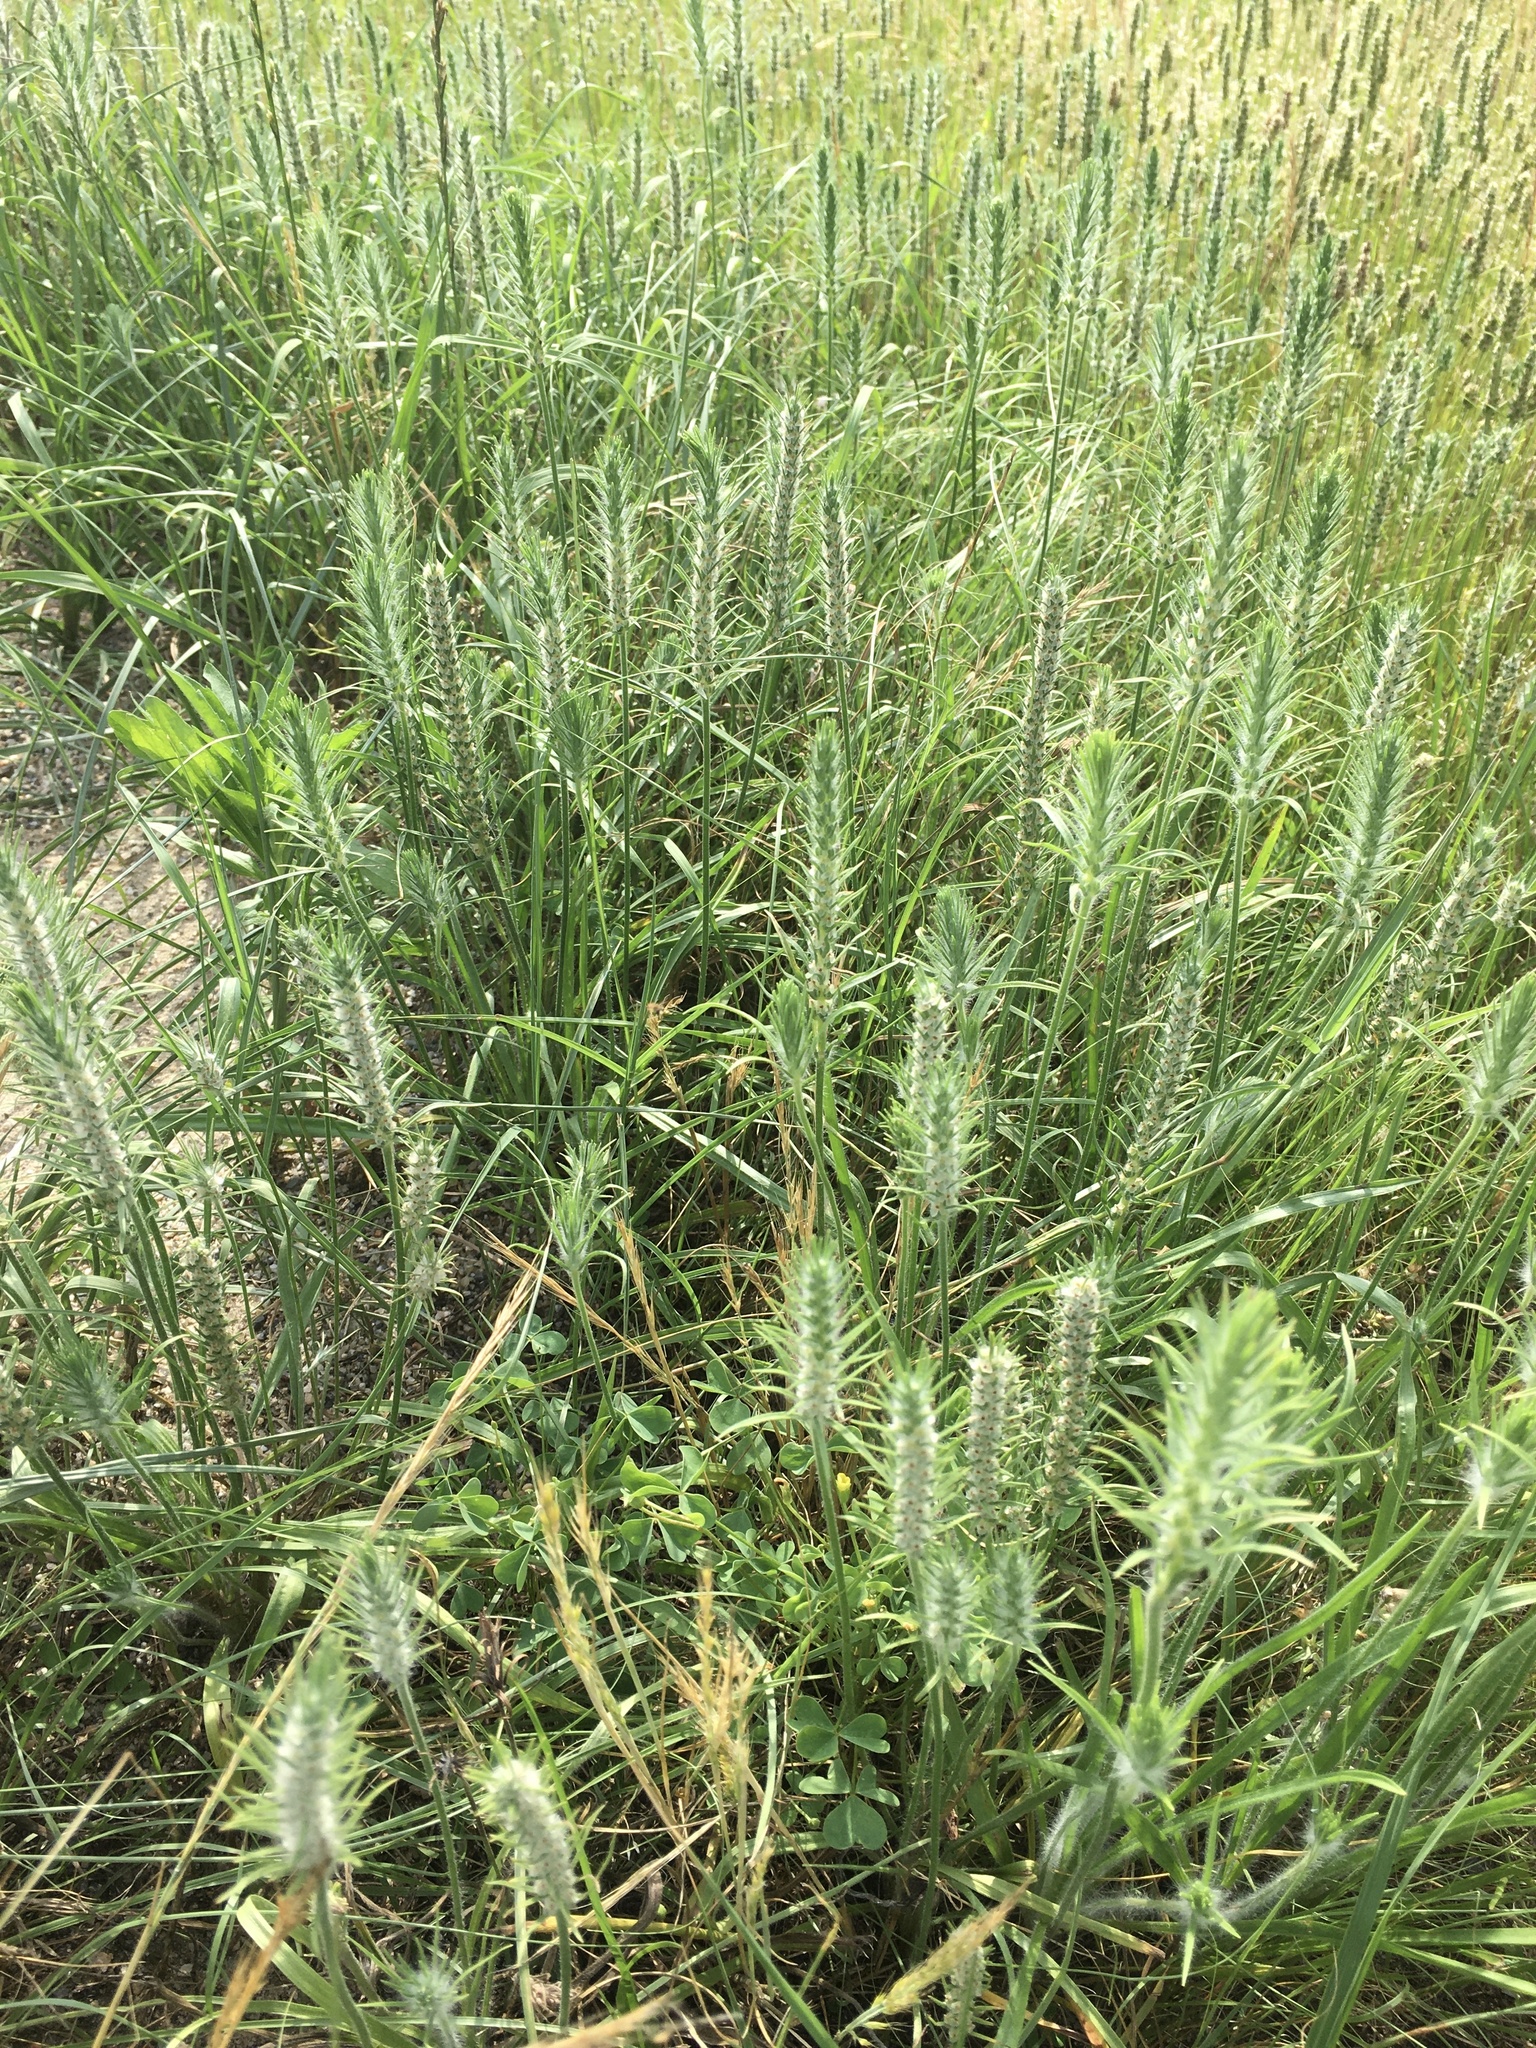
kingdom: Plantae
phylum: Tracheophyta
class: Magnoliopsida
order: Lamiales
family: Plantaginaceae
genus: Plantago
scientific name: Plantago aristata
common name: Bracted plantain
